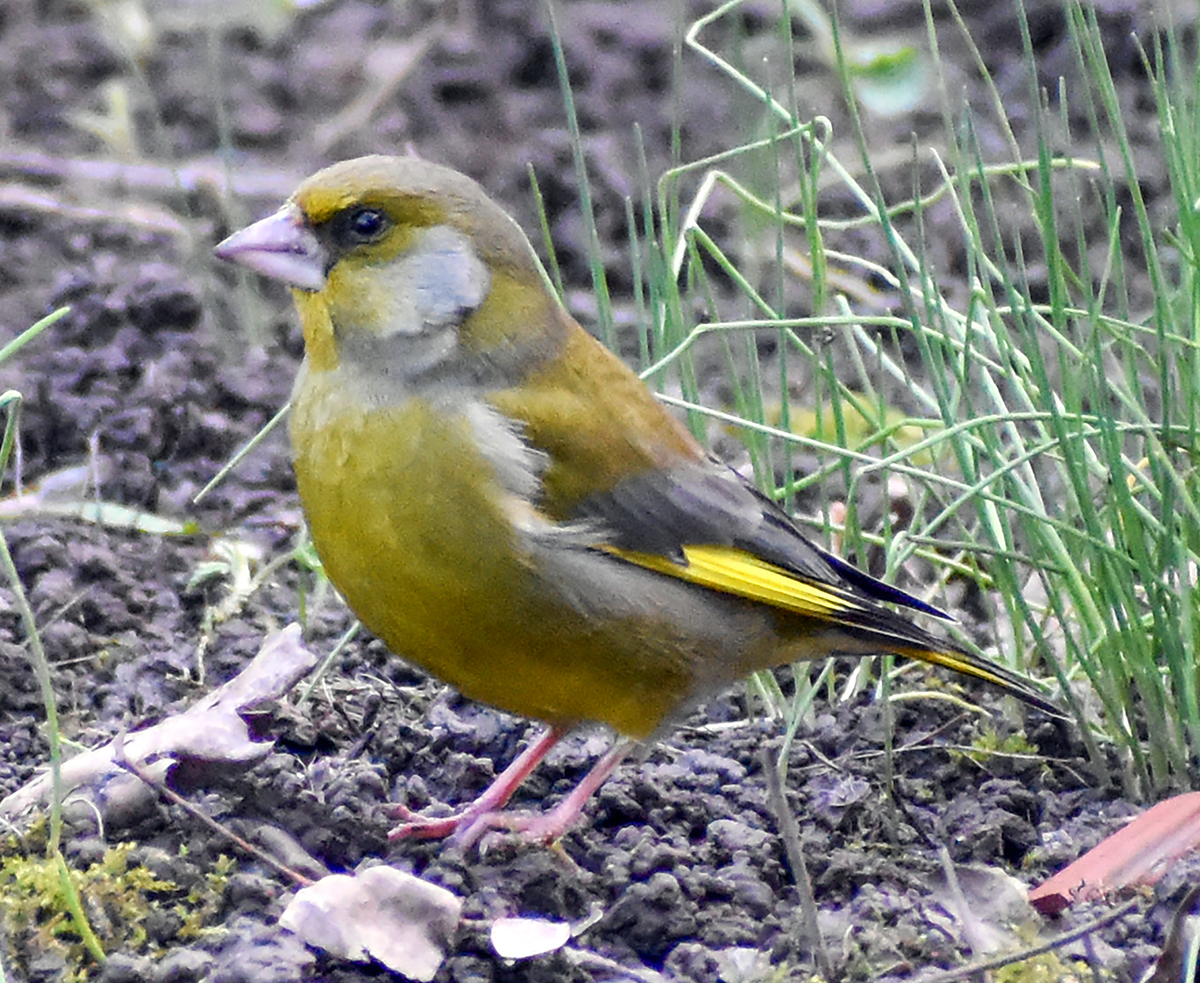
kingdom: Plantae
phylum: Tracheophyta
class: Liliopsida
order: Poales
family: Poaceae
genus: Chloris
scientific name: Chloris chloris
